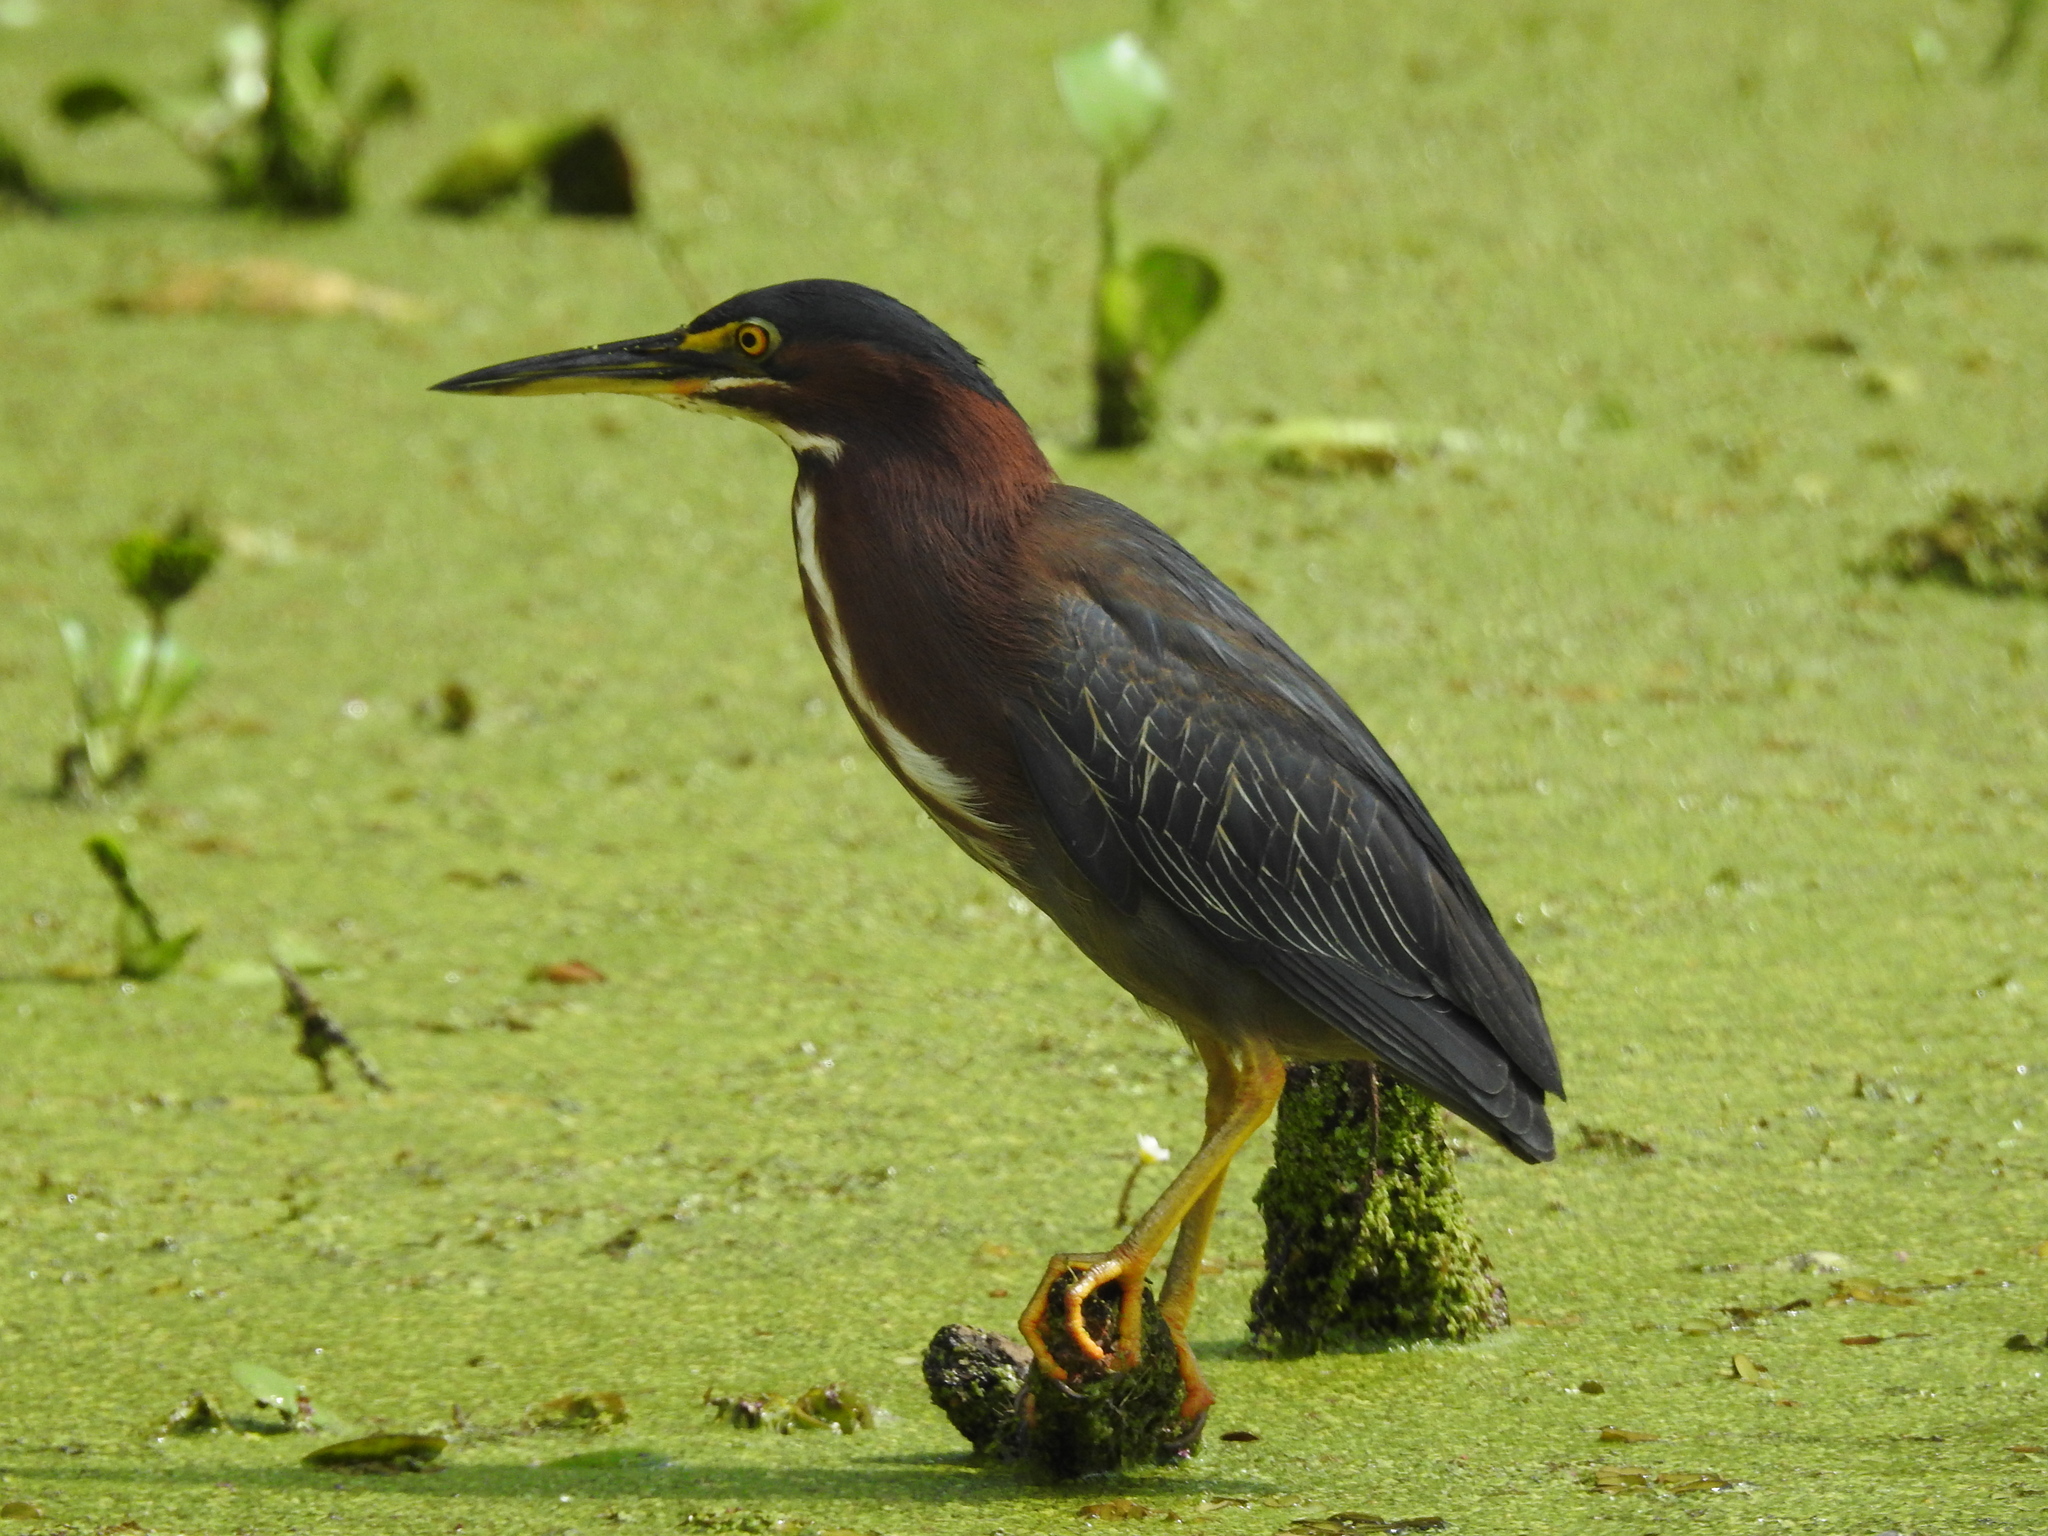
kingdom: Animalia
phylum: Chordata
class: Aves
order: Pelecaniformes
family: Ardeidae
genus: Butorides
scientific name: Butorides virescens
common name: Green heron
